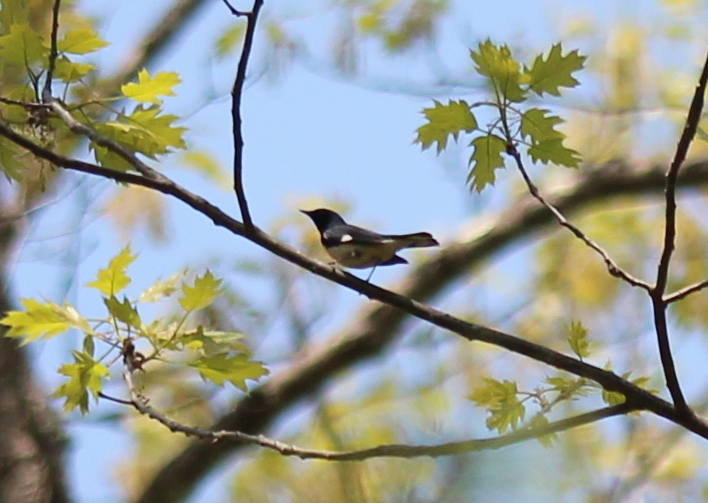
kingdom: Animalia
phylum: Chordata
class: Aves
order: Passeriformes
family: Parulidae
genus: Setophaga
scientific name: Setophaga caerulescens
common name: Black-throated blue warbler
